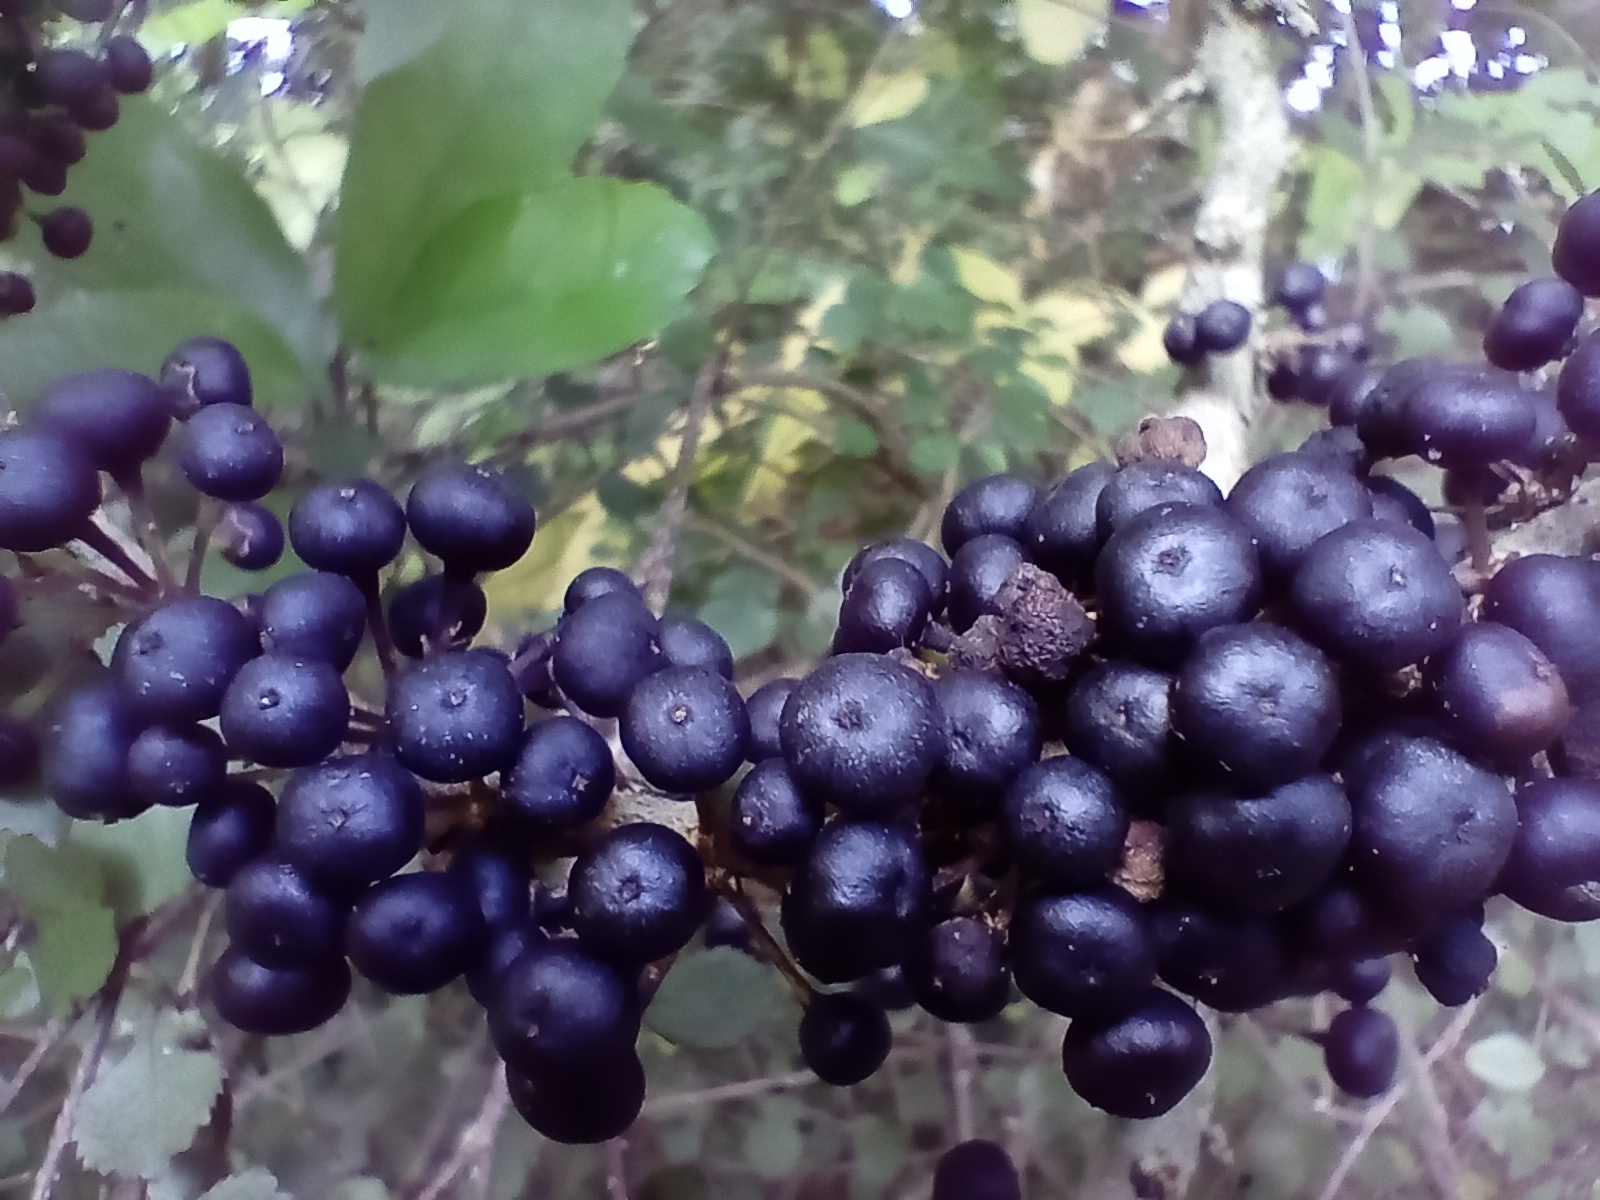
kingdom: Plantae
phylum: Tracheophyta
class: Magnoliopsida
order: Malpighiales
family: Violaceae
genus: Melicytus
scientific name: Melicytus ramiflorus
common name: Mahoe
